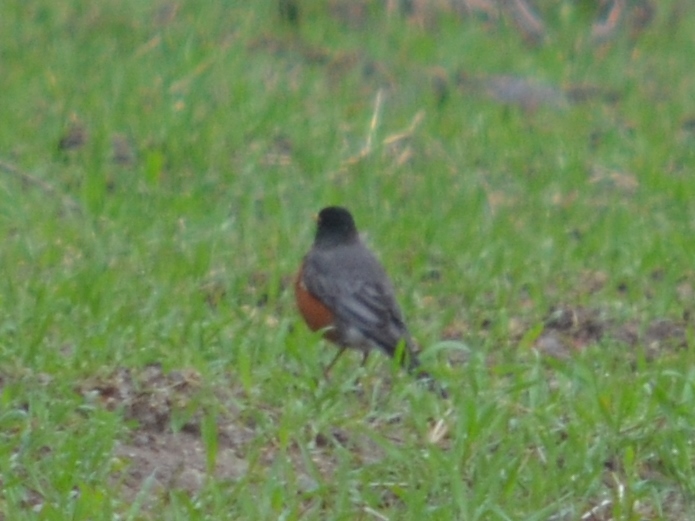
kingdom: Animalia
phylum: Chordata
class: Aves
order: Passeriformes
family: Turdidae
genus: Turdus
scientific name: Turdus migratorius
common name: American robin
